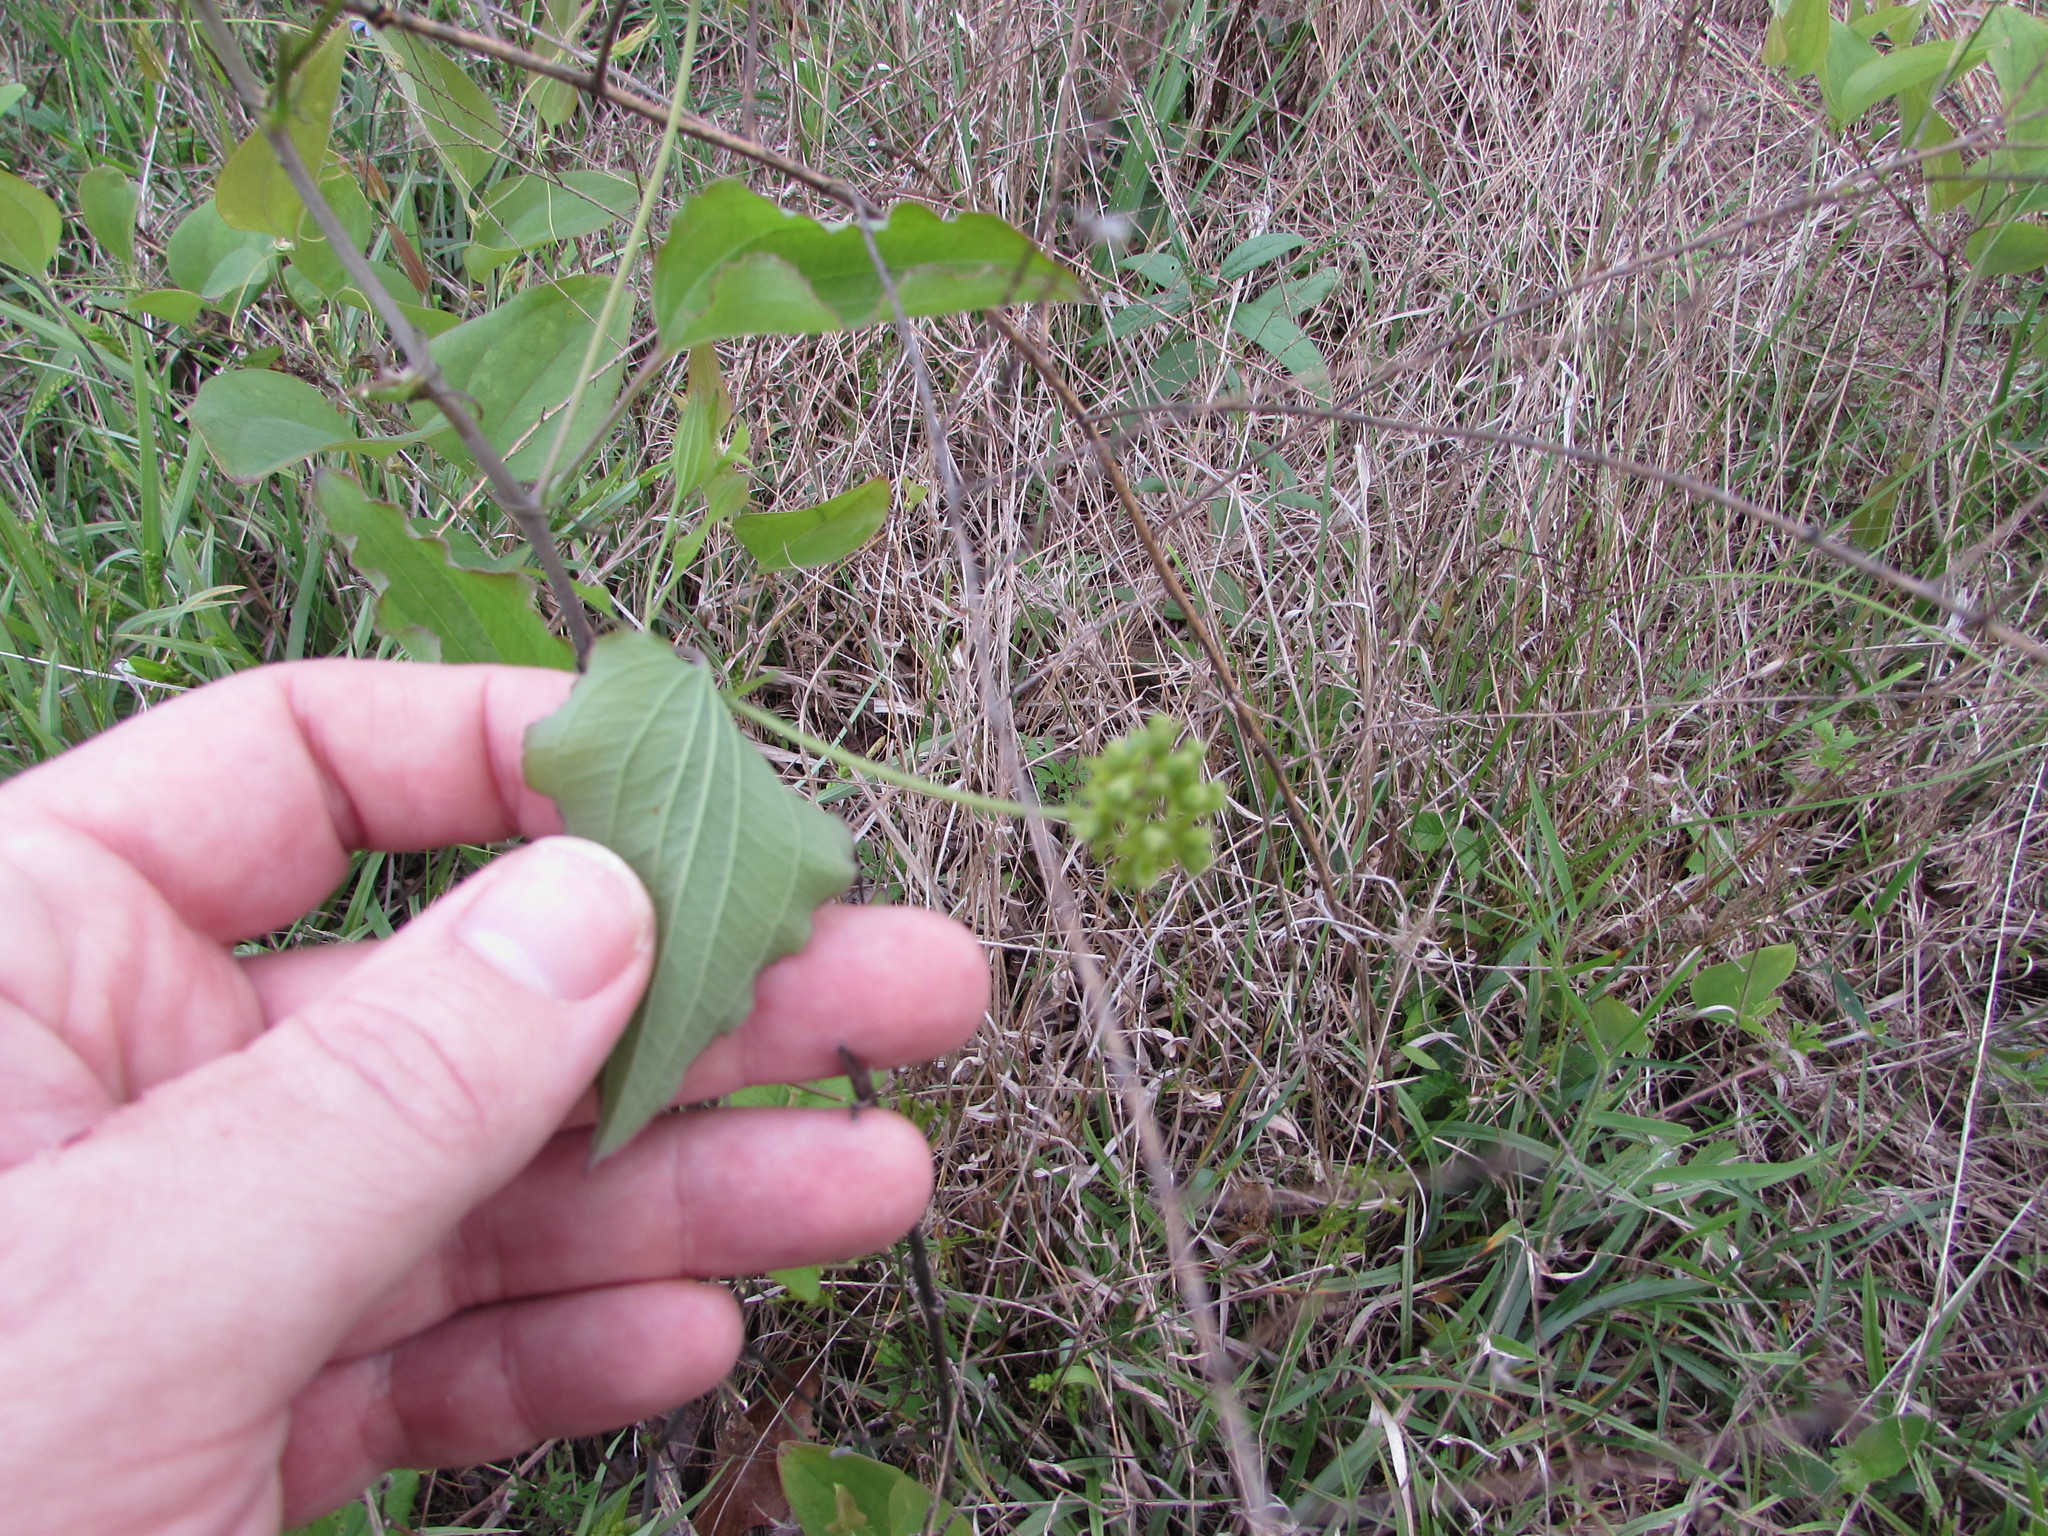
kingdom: Plantae
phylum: Tracheophyta
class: Liliopsida
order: Liliales
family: Smilacaceae
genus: Smilax
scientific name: Smilax herbacea
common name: Jacob's-ladder
